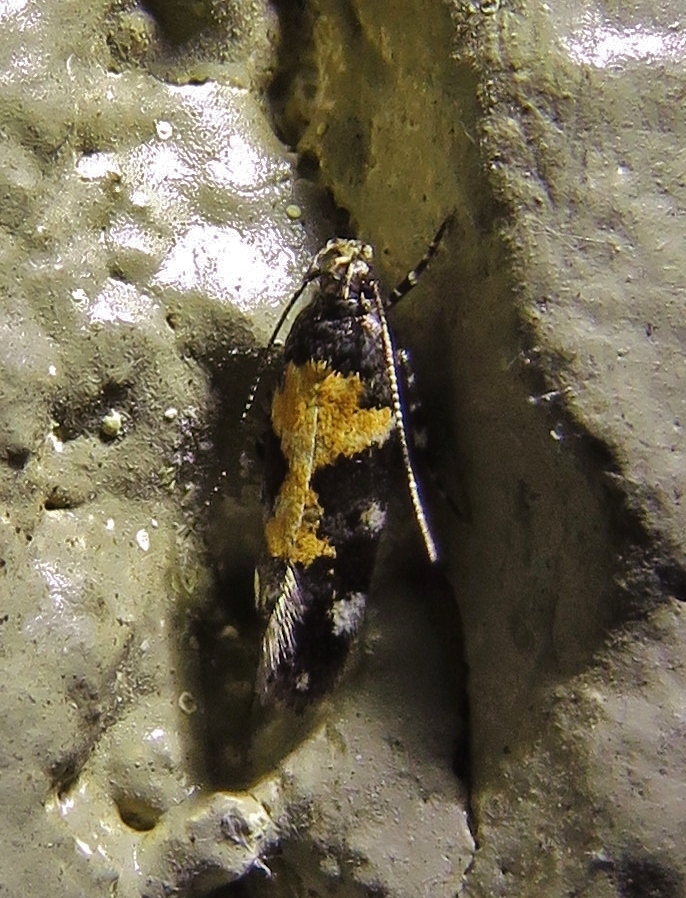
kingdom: Animalia
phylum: Arthropoda
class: Insecta
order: Lepidoptera
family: Gelechiidae
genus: Stegasta
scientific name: Stegasta bosqueella
